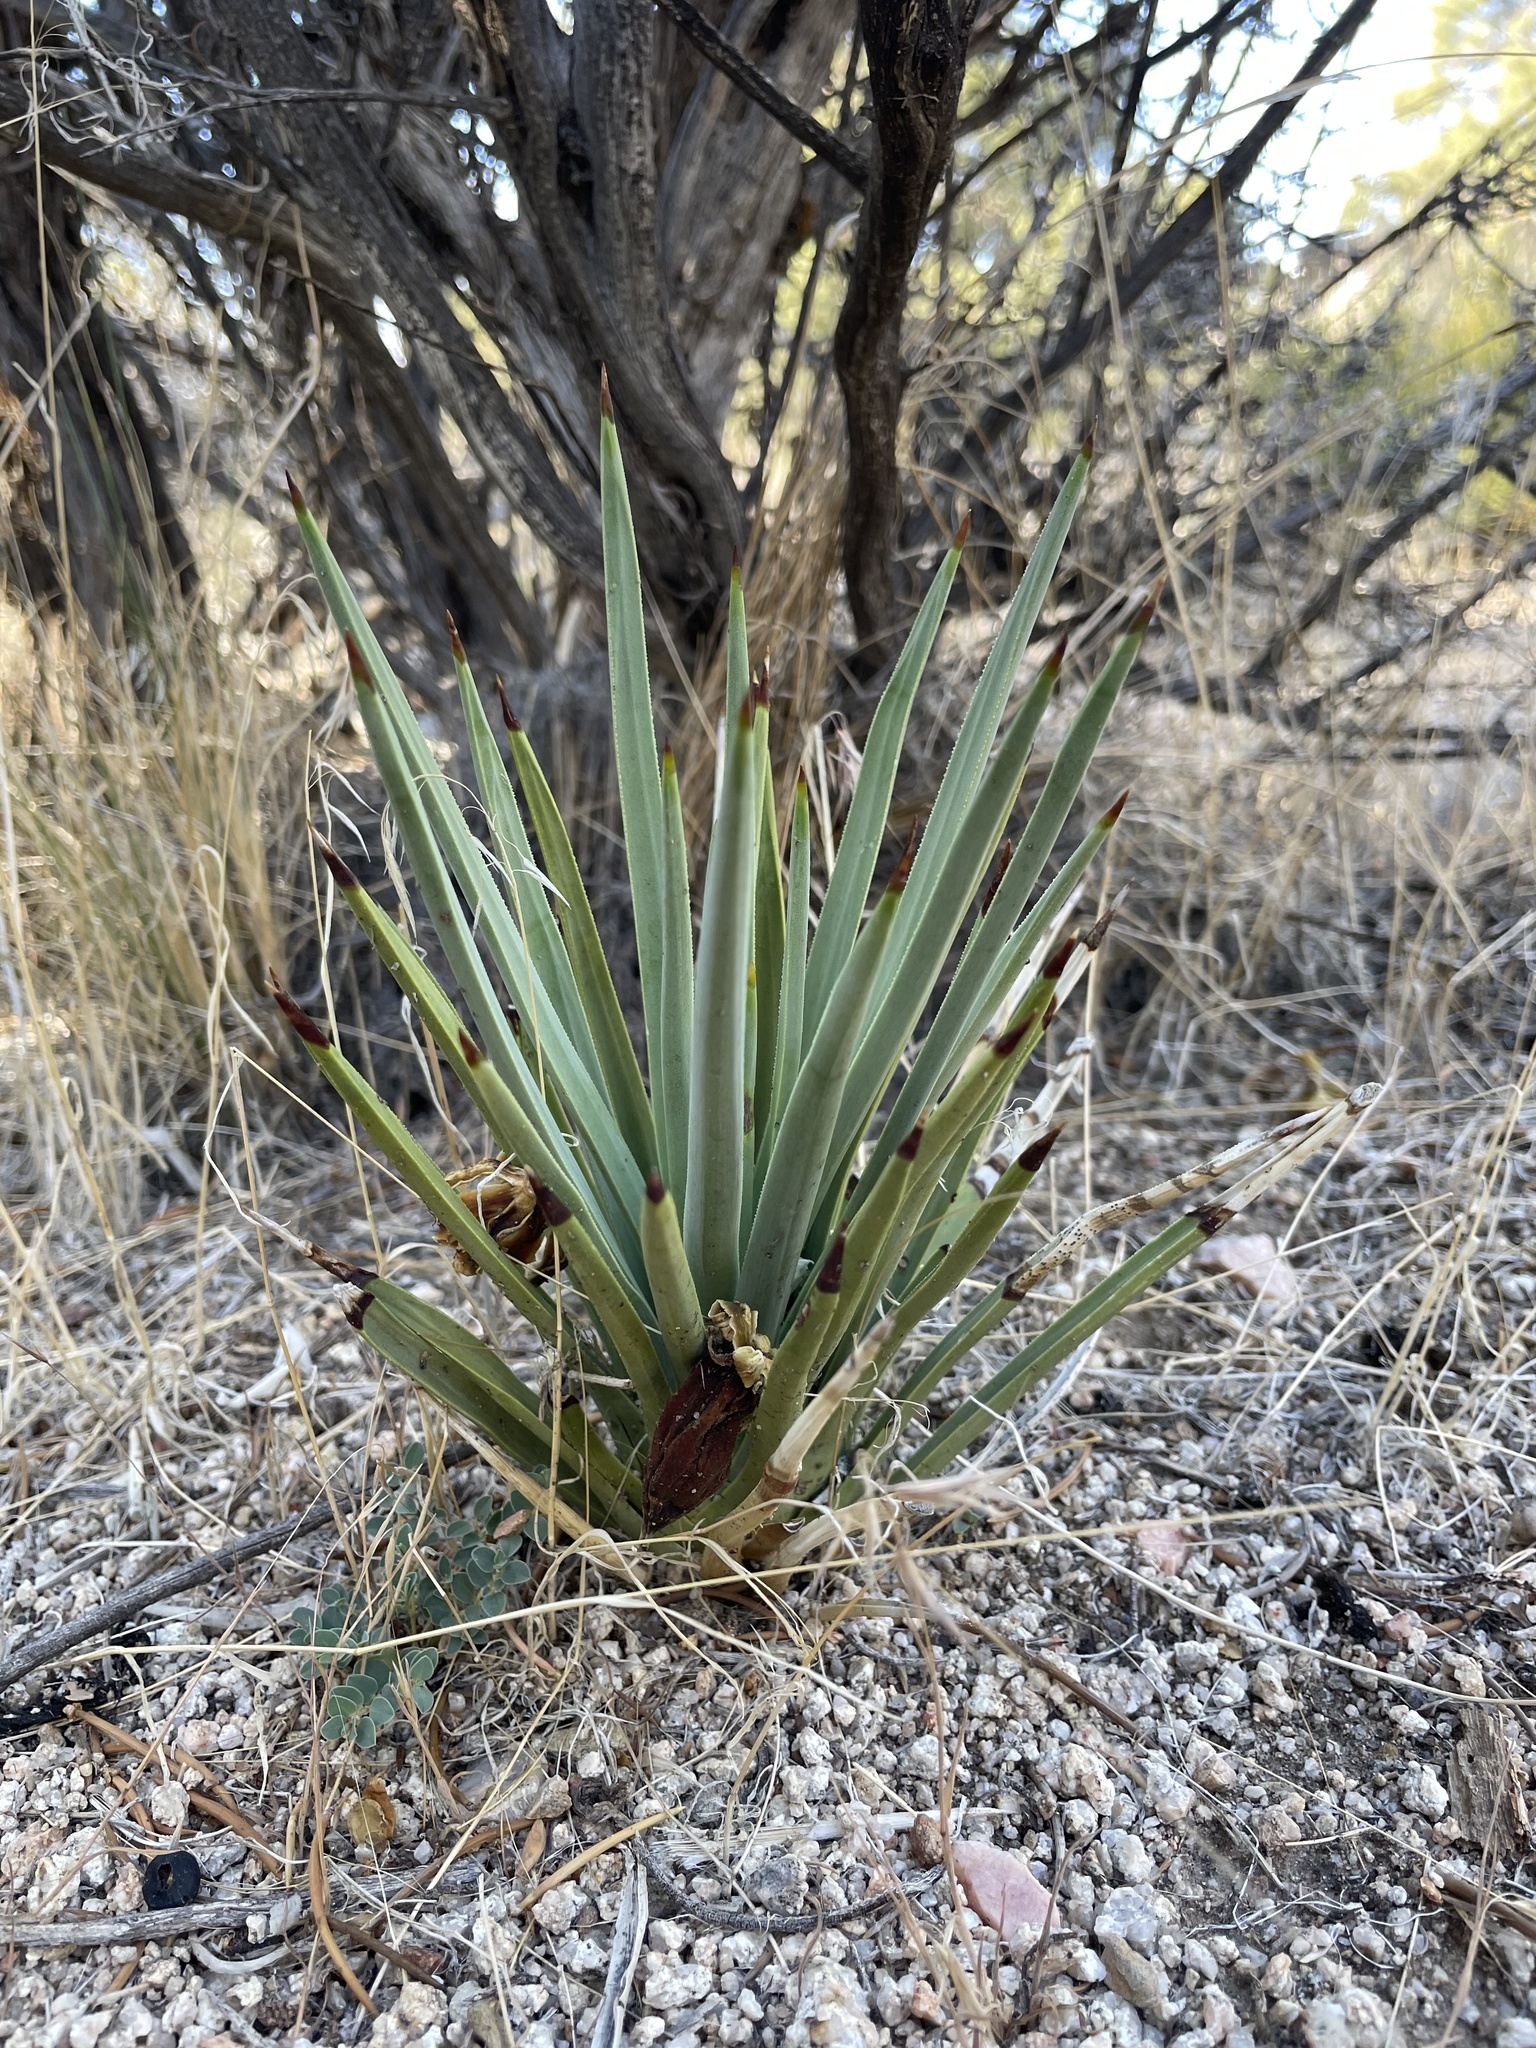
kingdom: Plantae
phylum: Tracheophyta
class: Liliopsida
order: Asparagales
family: Asparagaceae
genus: Yucca
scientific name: Yucca brevifolia
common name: Joshua tree
